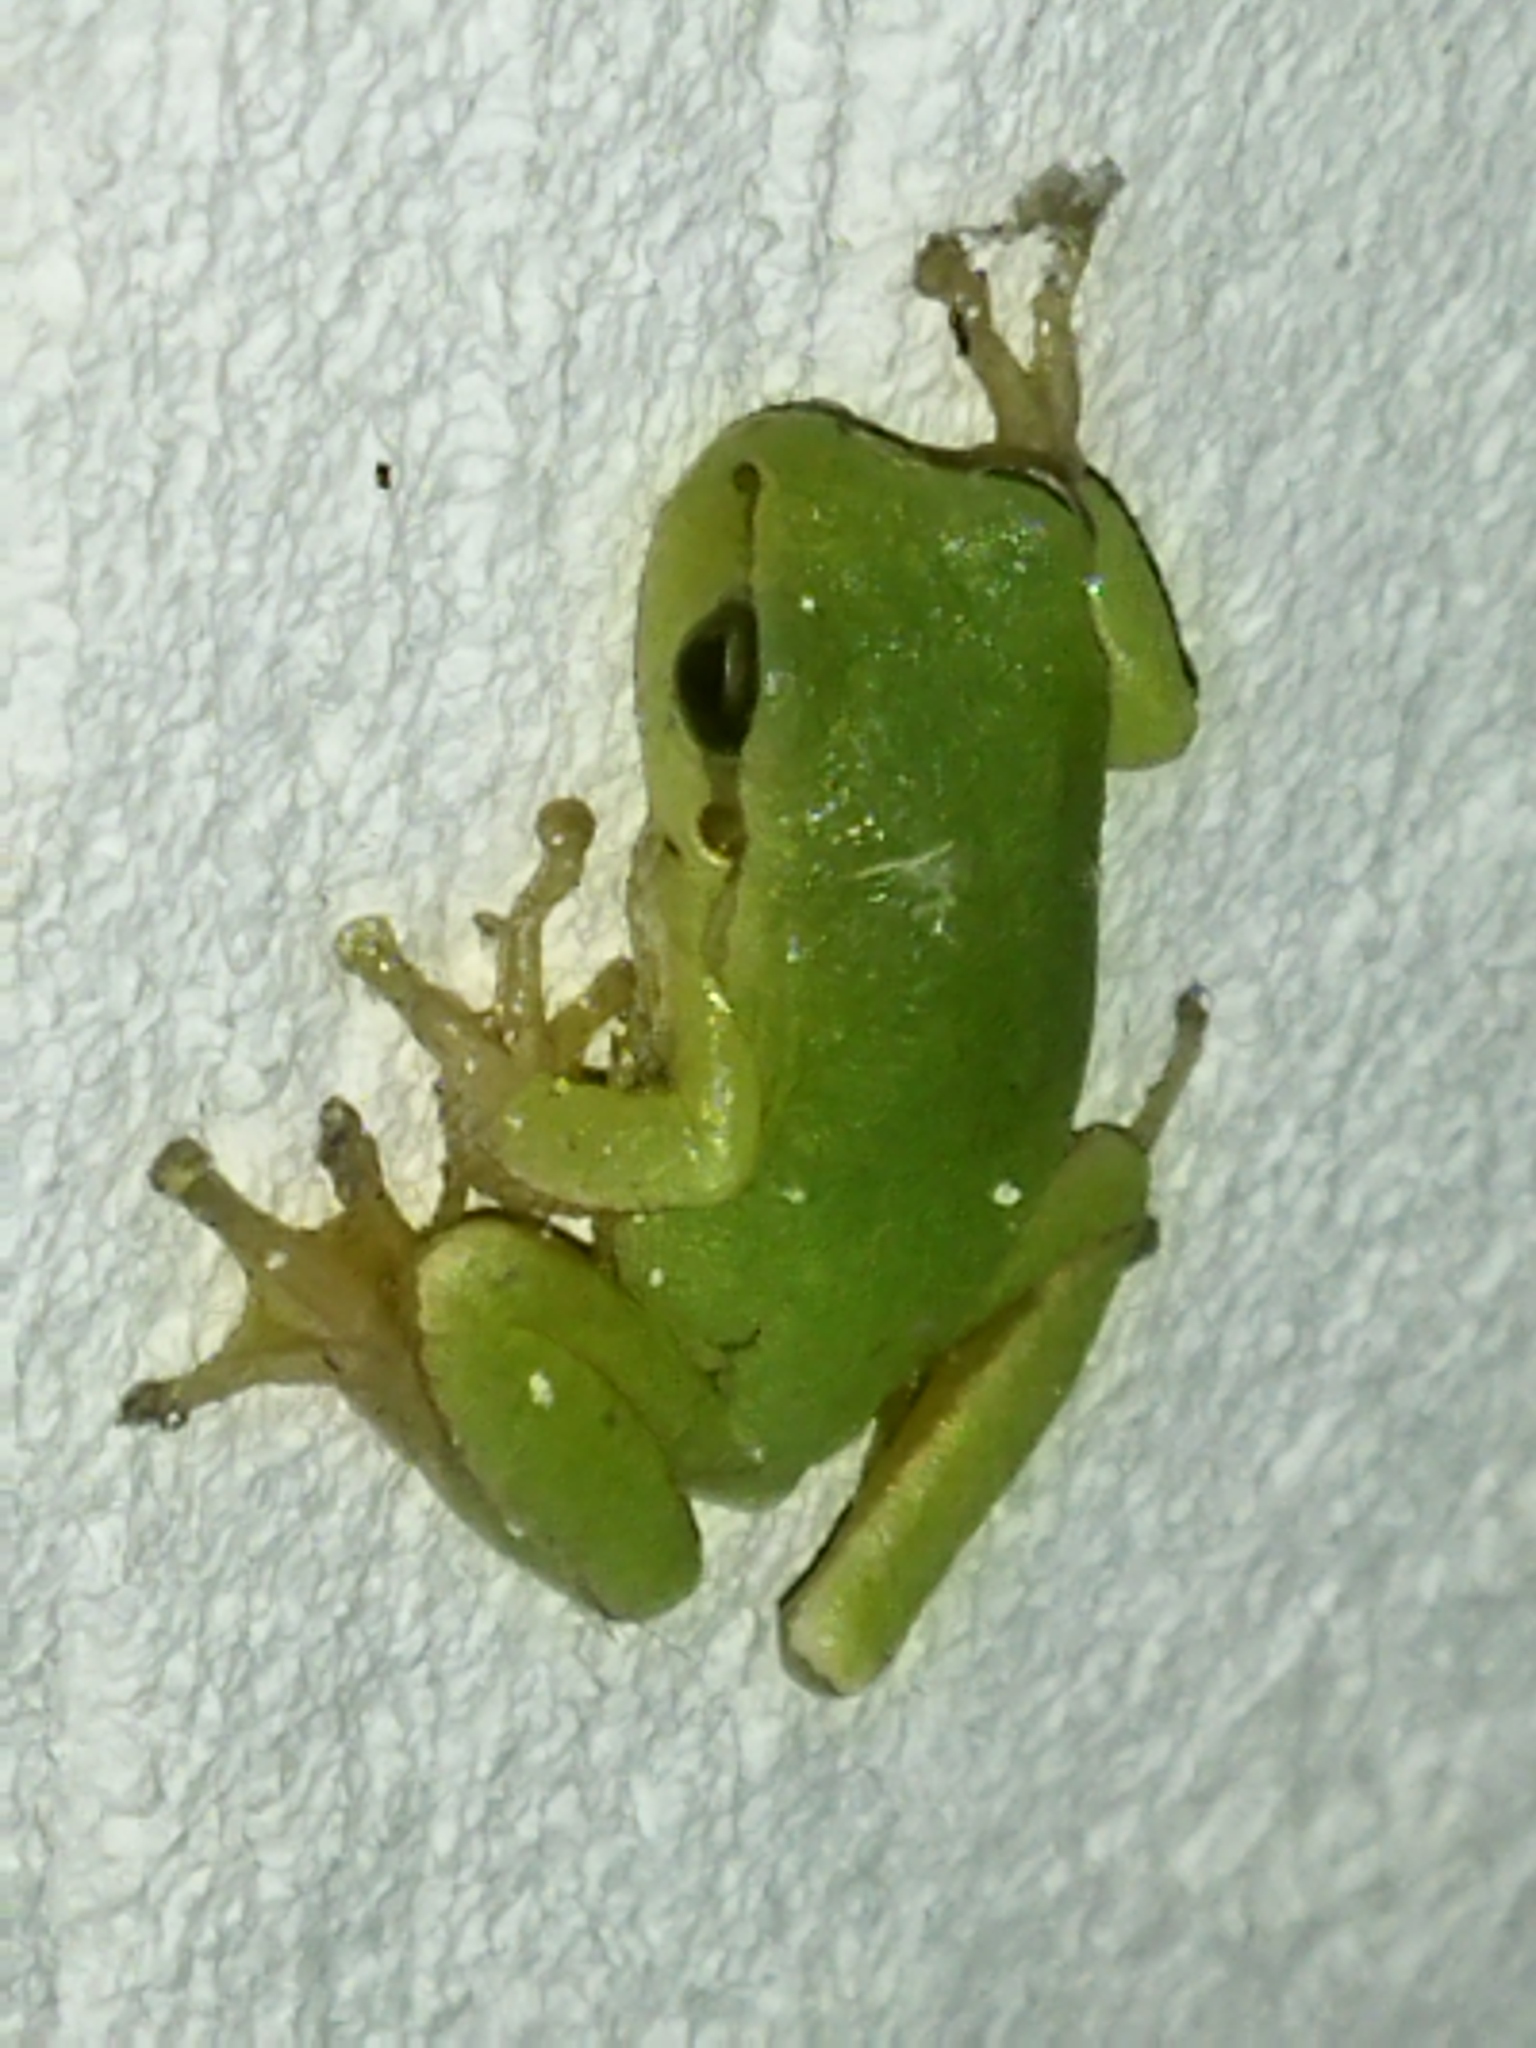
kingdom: Animalia
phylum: Chordata
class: Amphibia
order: Anura
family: Hylidae
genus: Hyla
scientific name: Hyla orientalis
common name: Caucasian treefrog
